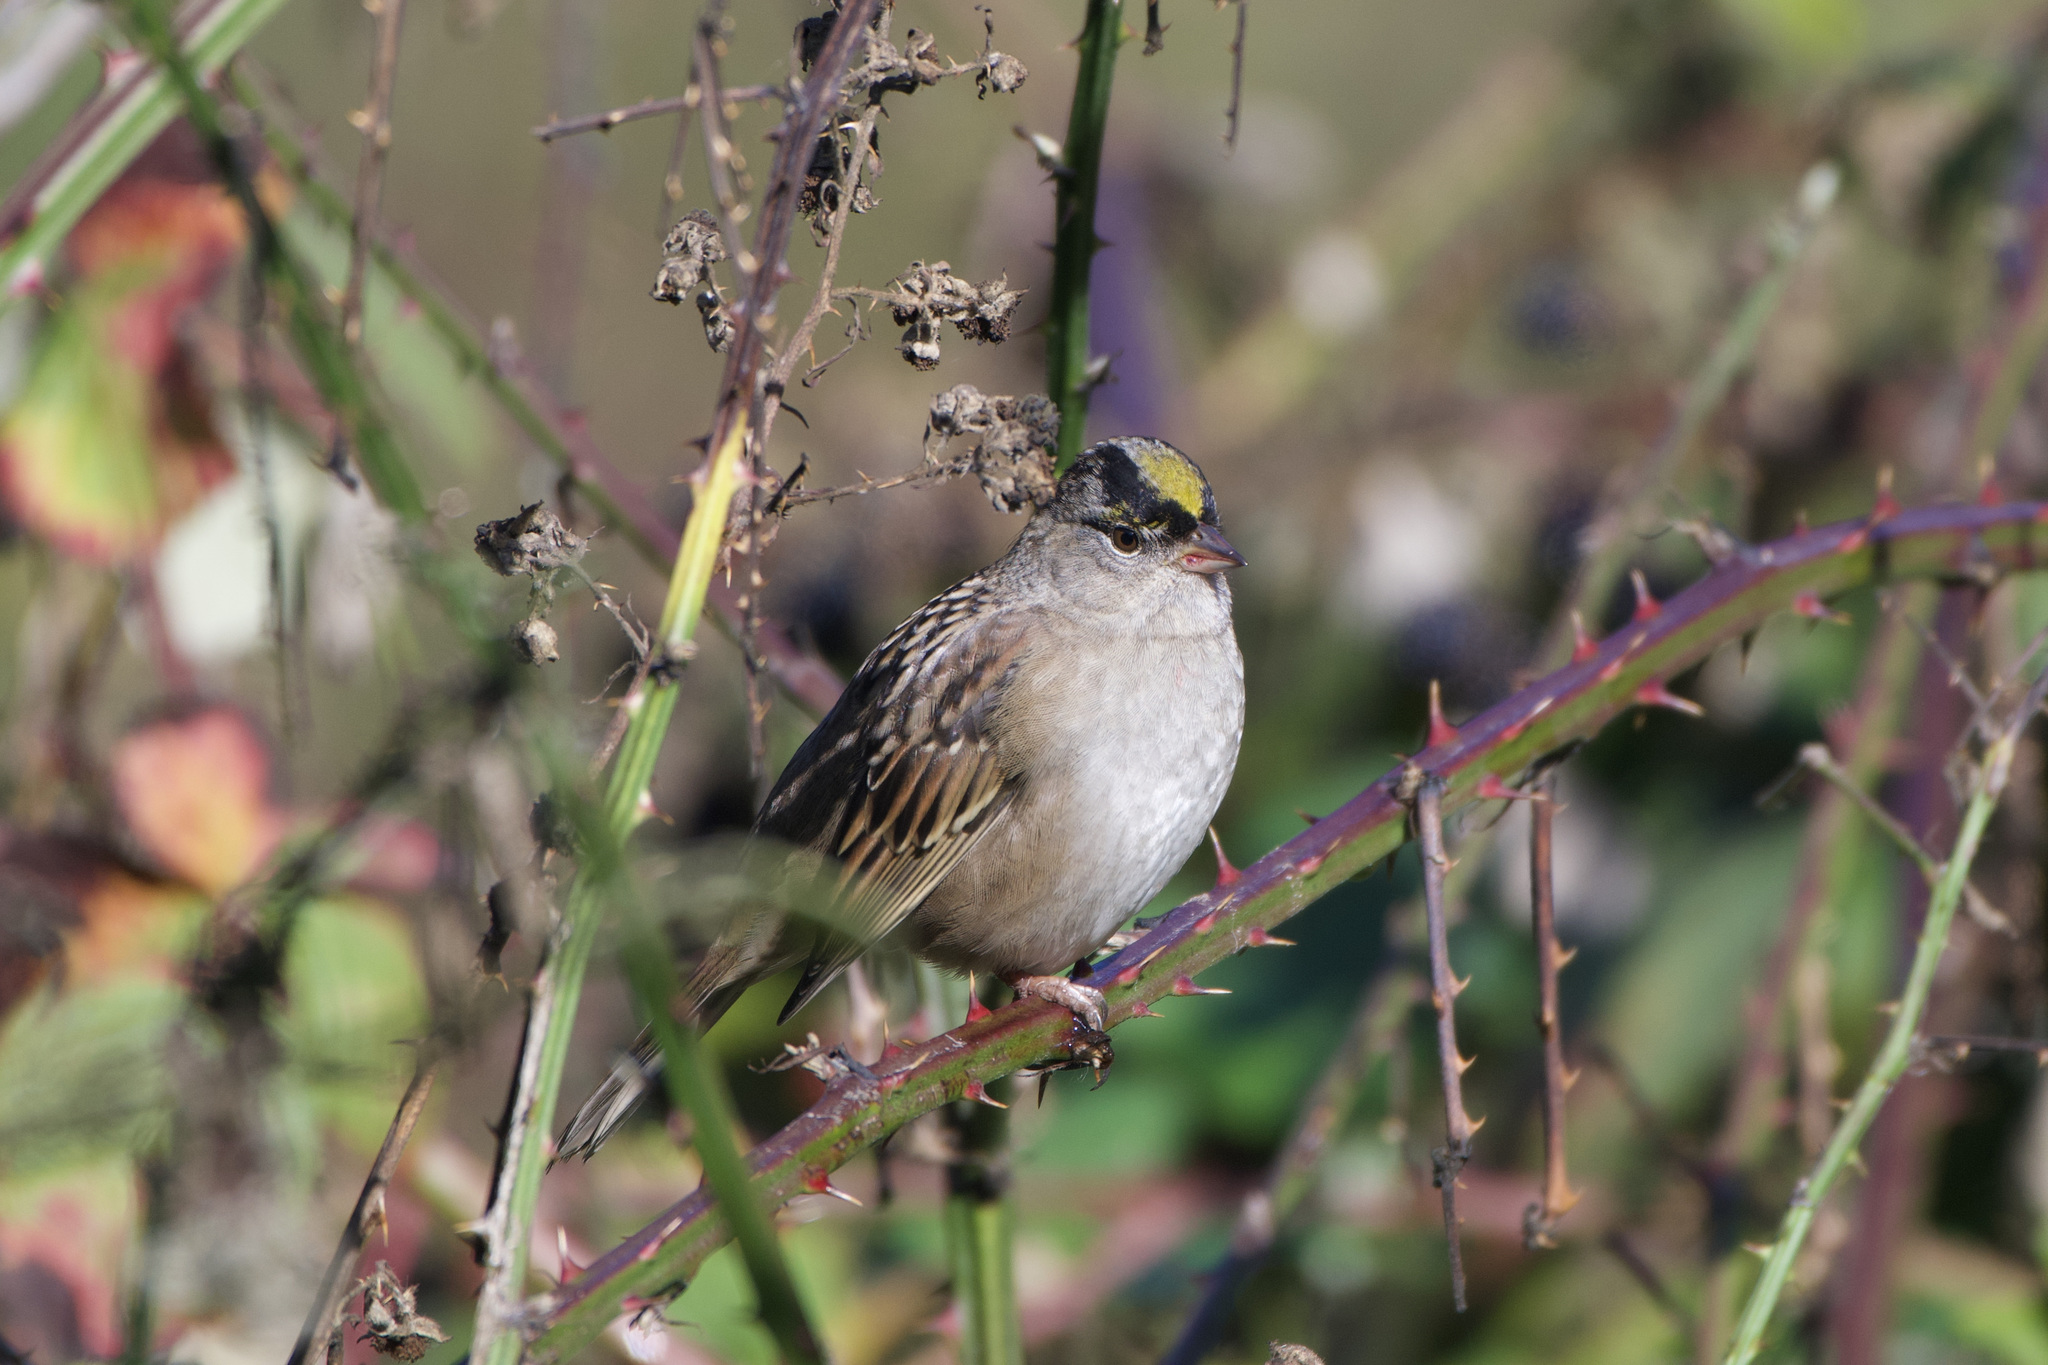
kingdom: Animalia
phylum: Chordata
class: Aves
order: Passeriformes
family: Passerellidae
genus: Zonotrichia
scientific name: Zonotrichia atricapilla
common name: Golden-crowned sparrow
